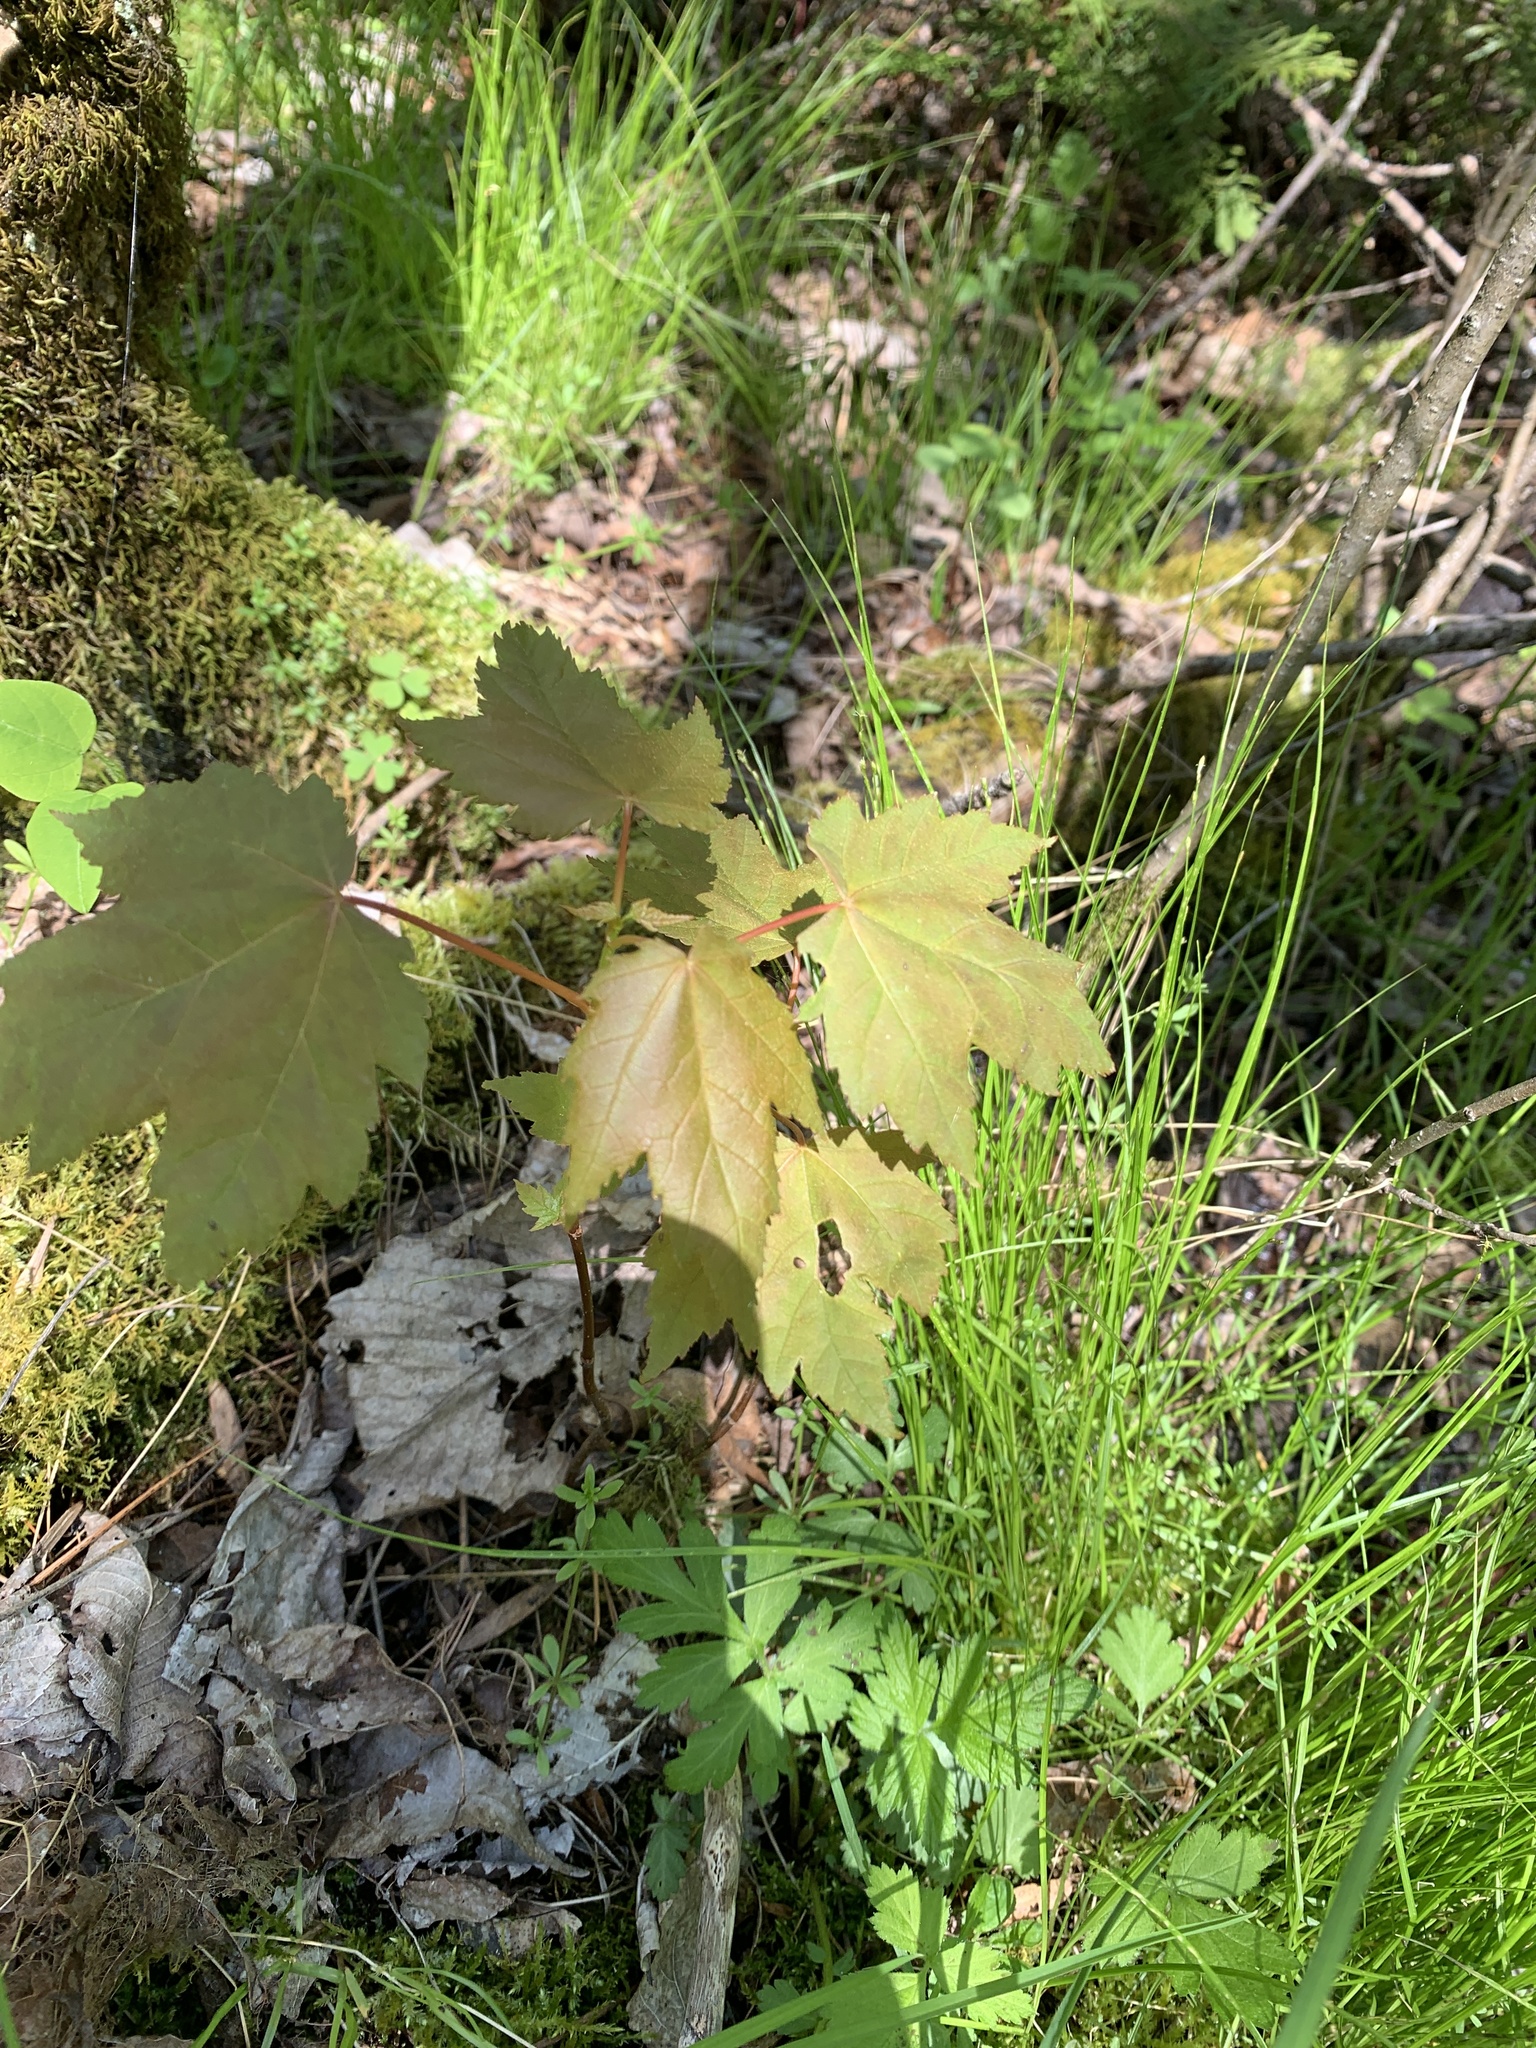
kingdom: Plantae
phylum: Tracheophyta
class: Magnoliopsida
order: Sapindales
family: Sapindaceae
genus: Acer
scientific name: Acer rubrum
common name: Red maple
